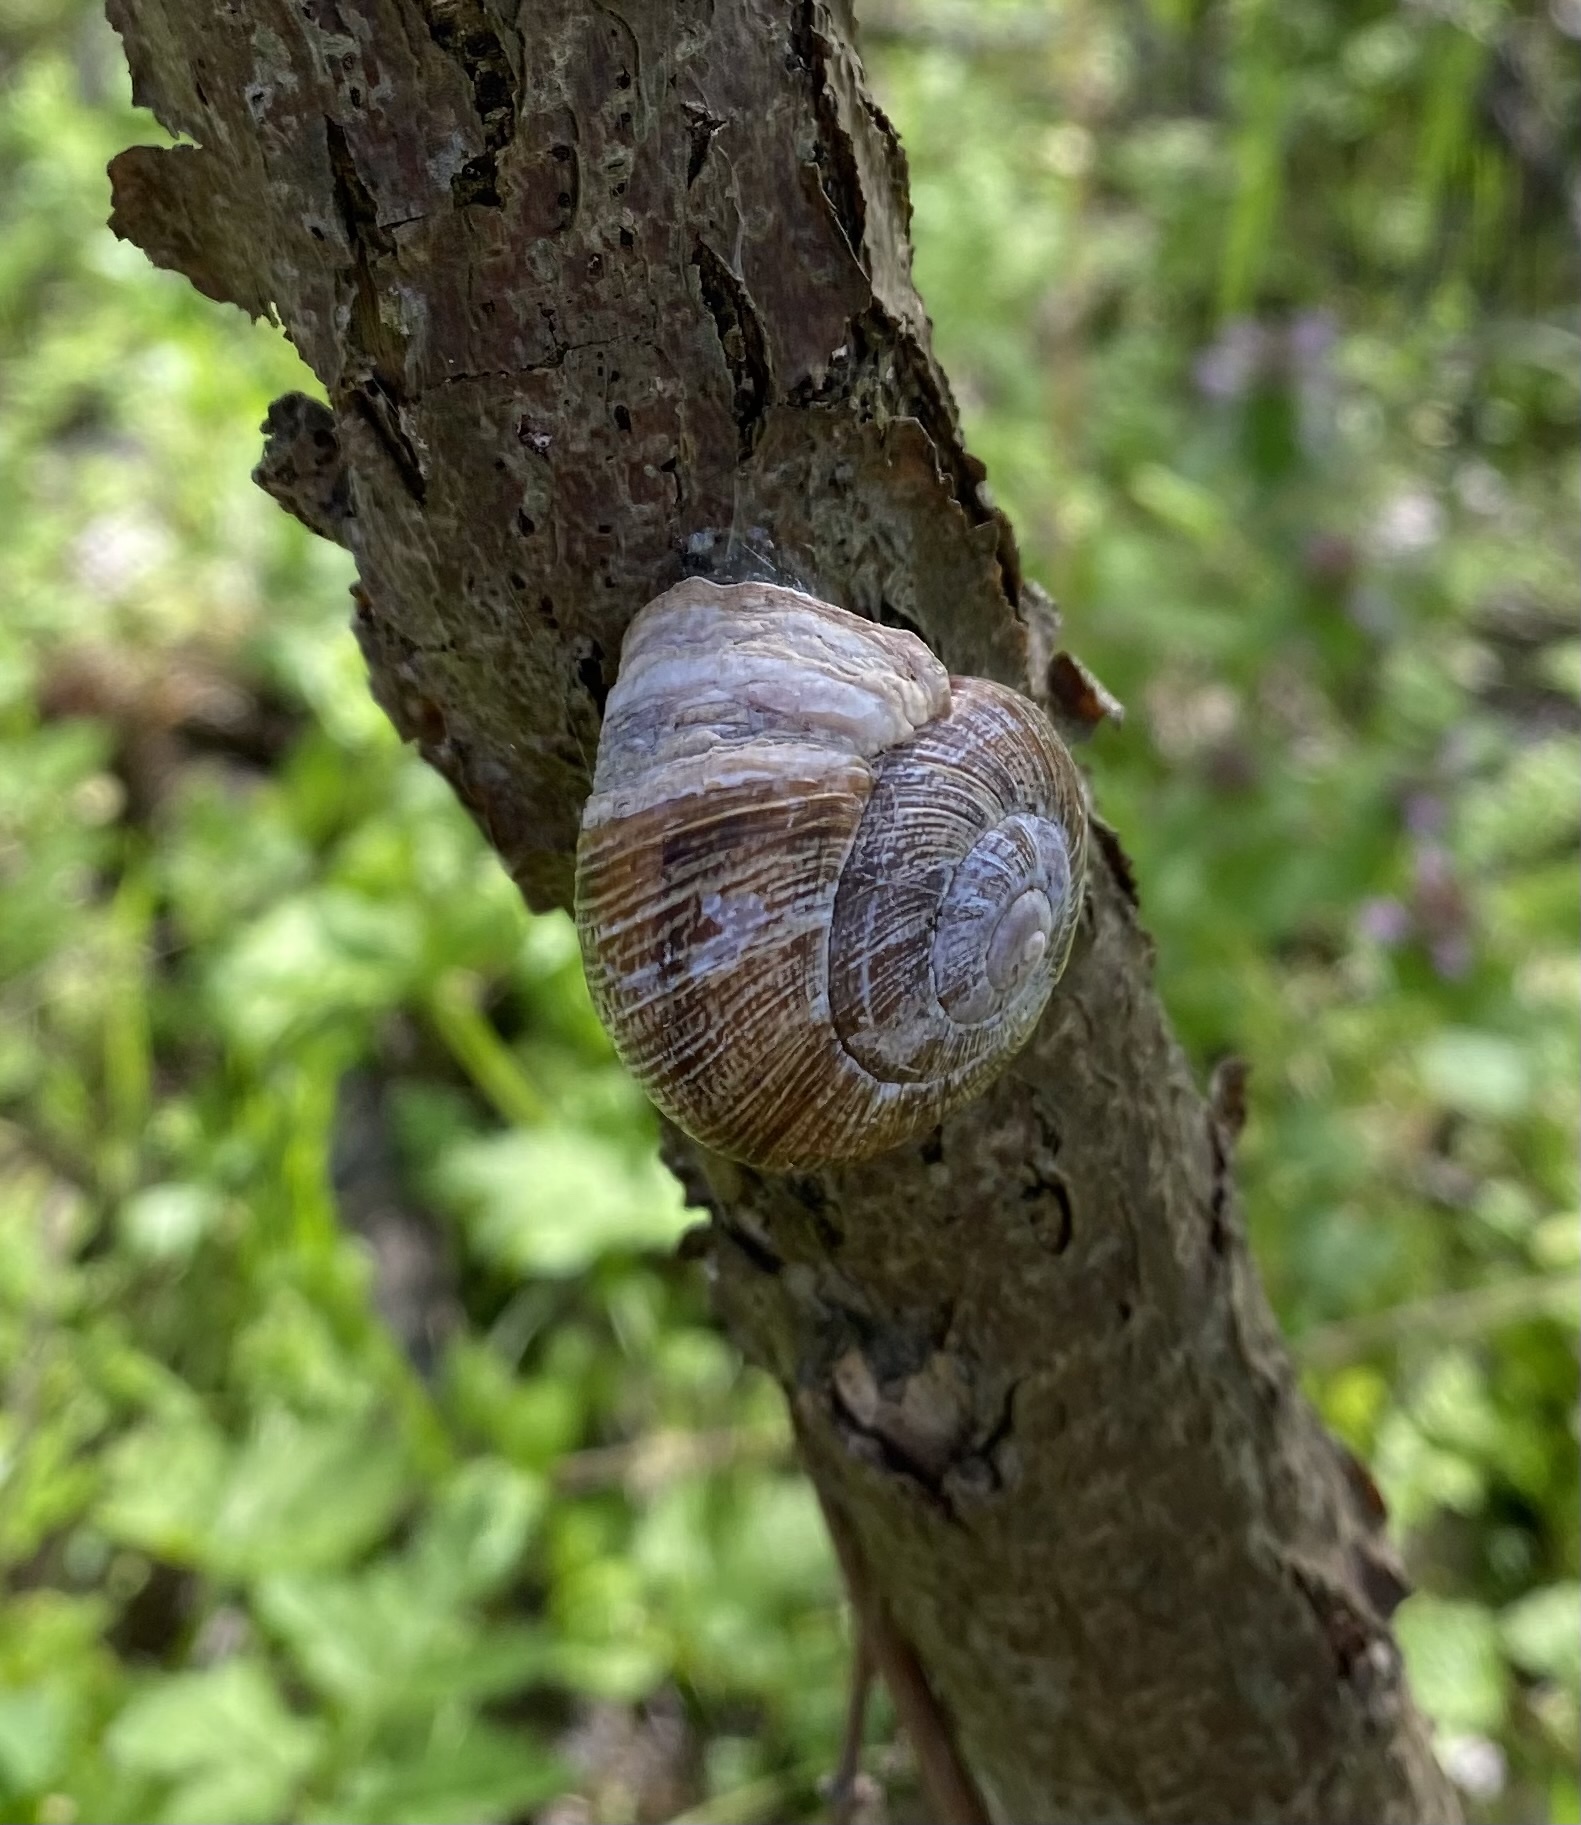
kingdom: Animalia
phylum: Mollusca
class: Gastropoda
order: Stylommatophora
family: Helicidae
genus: Caucasotachea
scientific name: Caucasotachea atrolabiata
